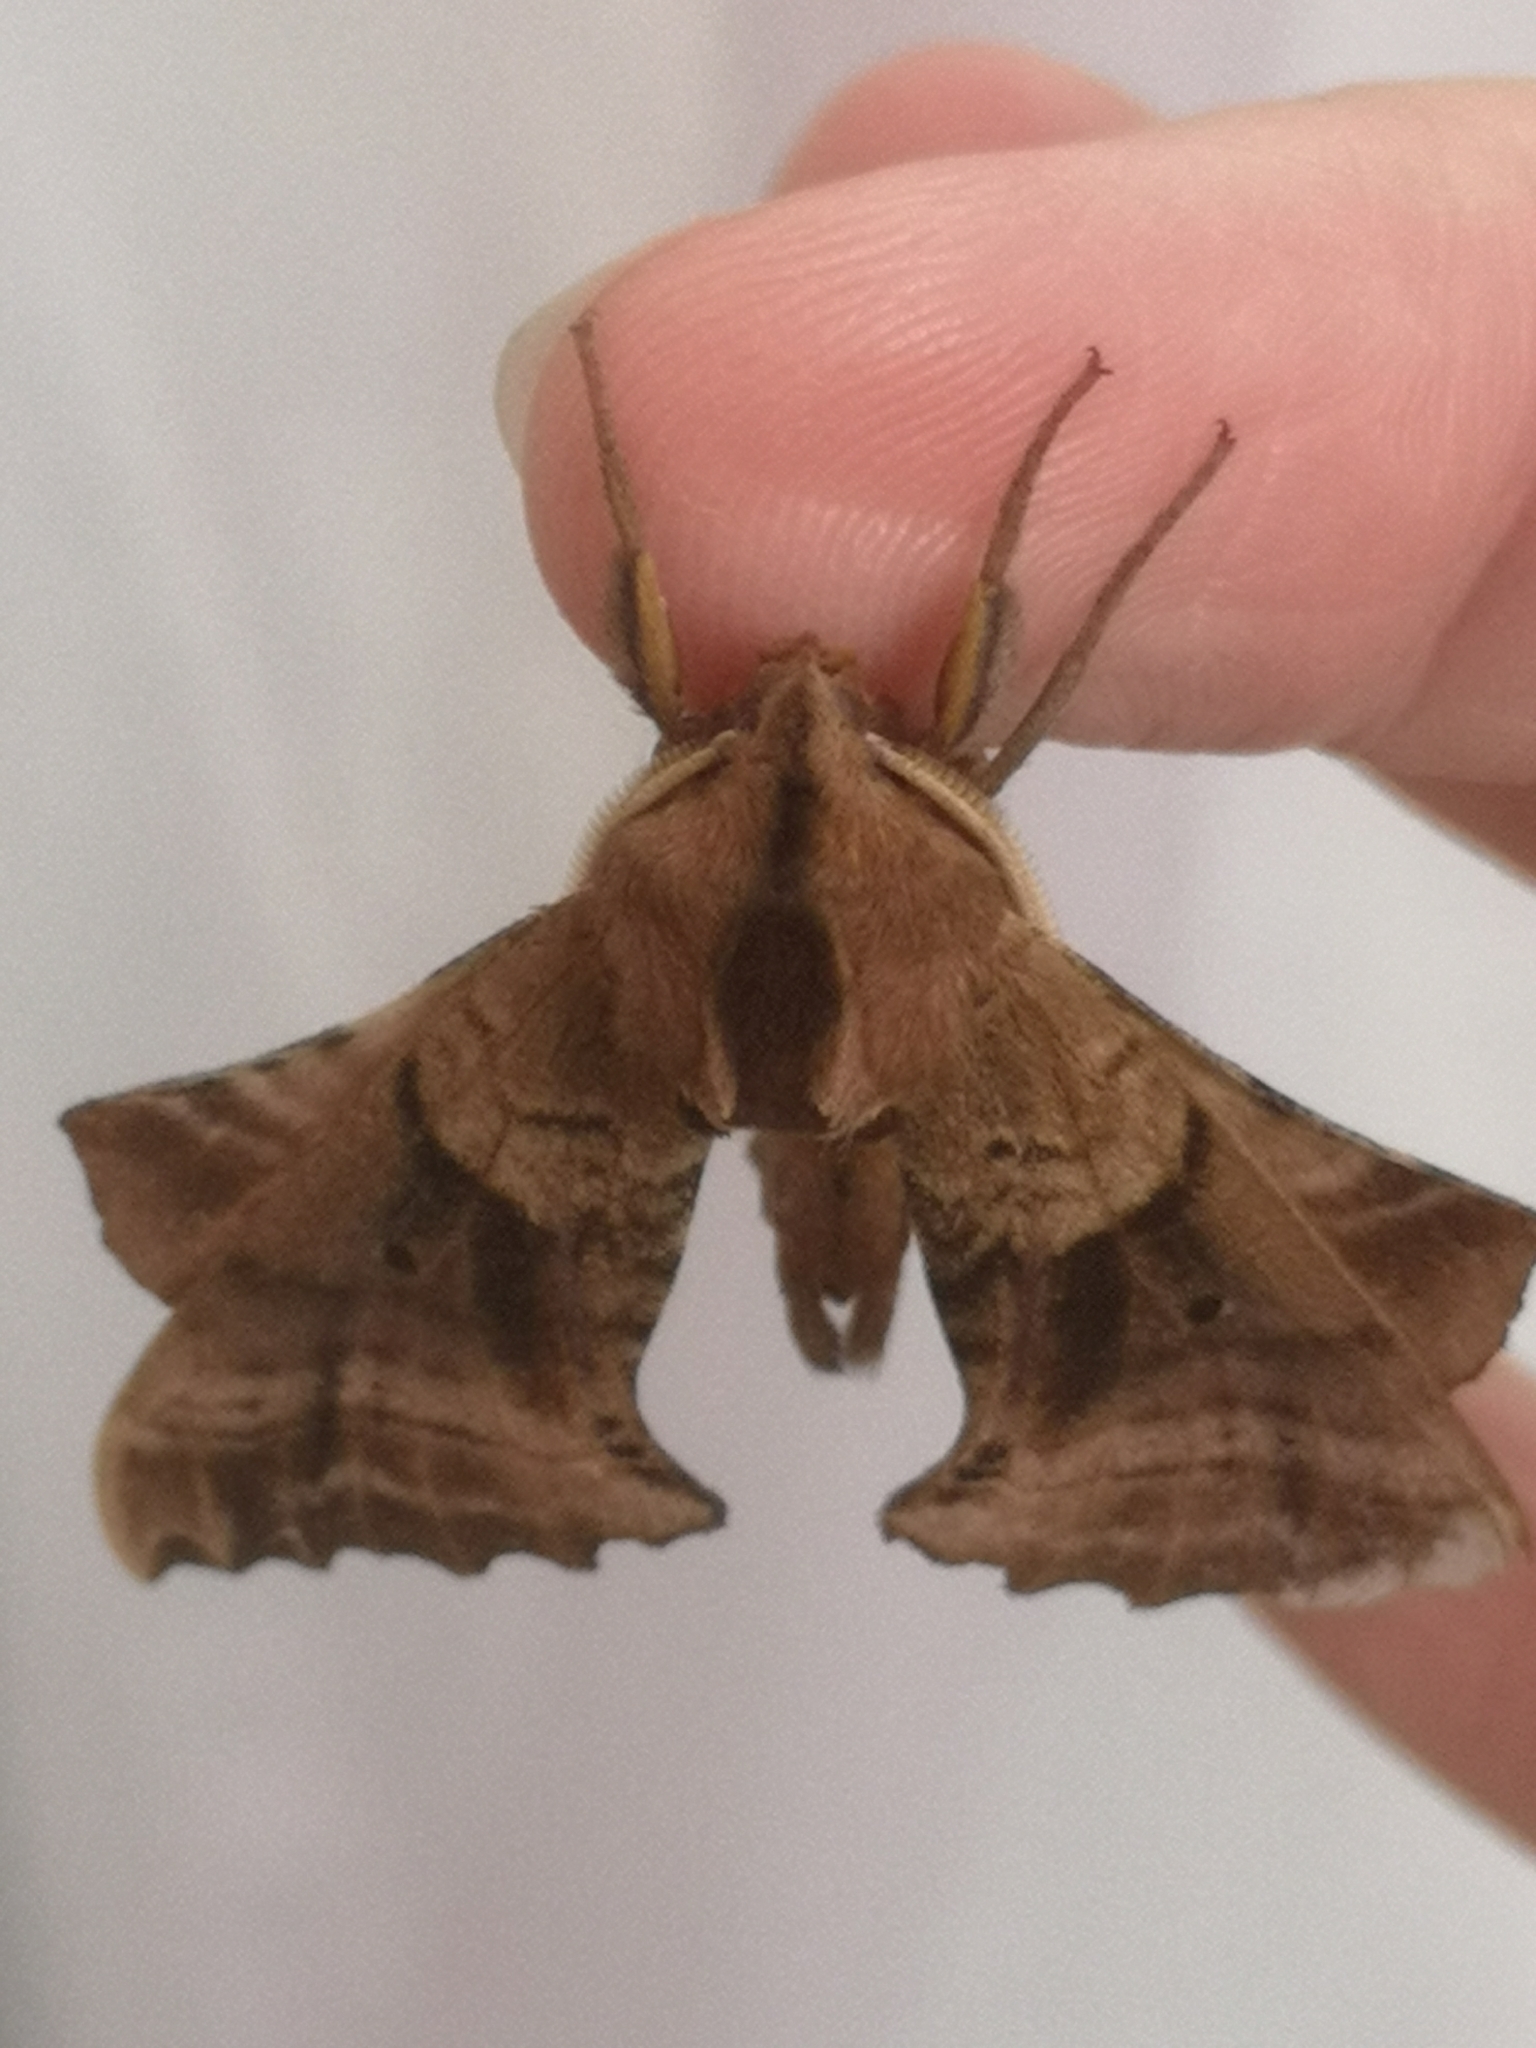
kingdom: Animalia
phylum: Arthropoda
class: Insecta
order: Lepidoptera
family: Sphingidae
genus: Paonias
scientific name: Paonias excaecata
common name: Blind-eyed sphinx
